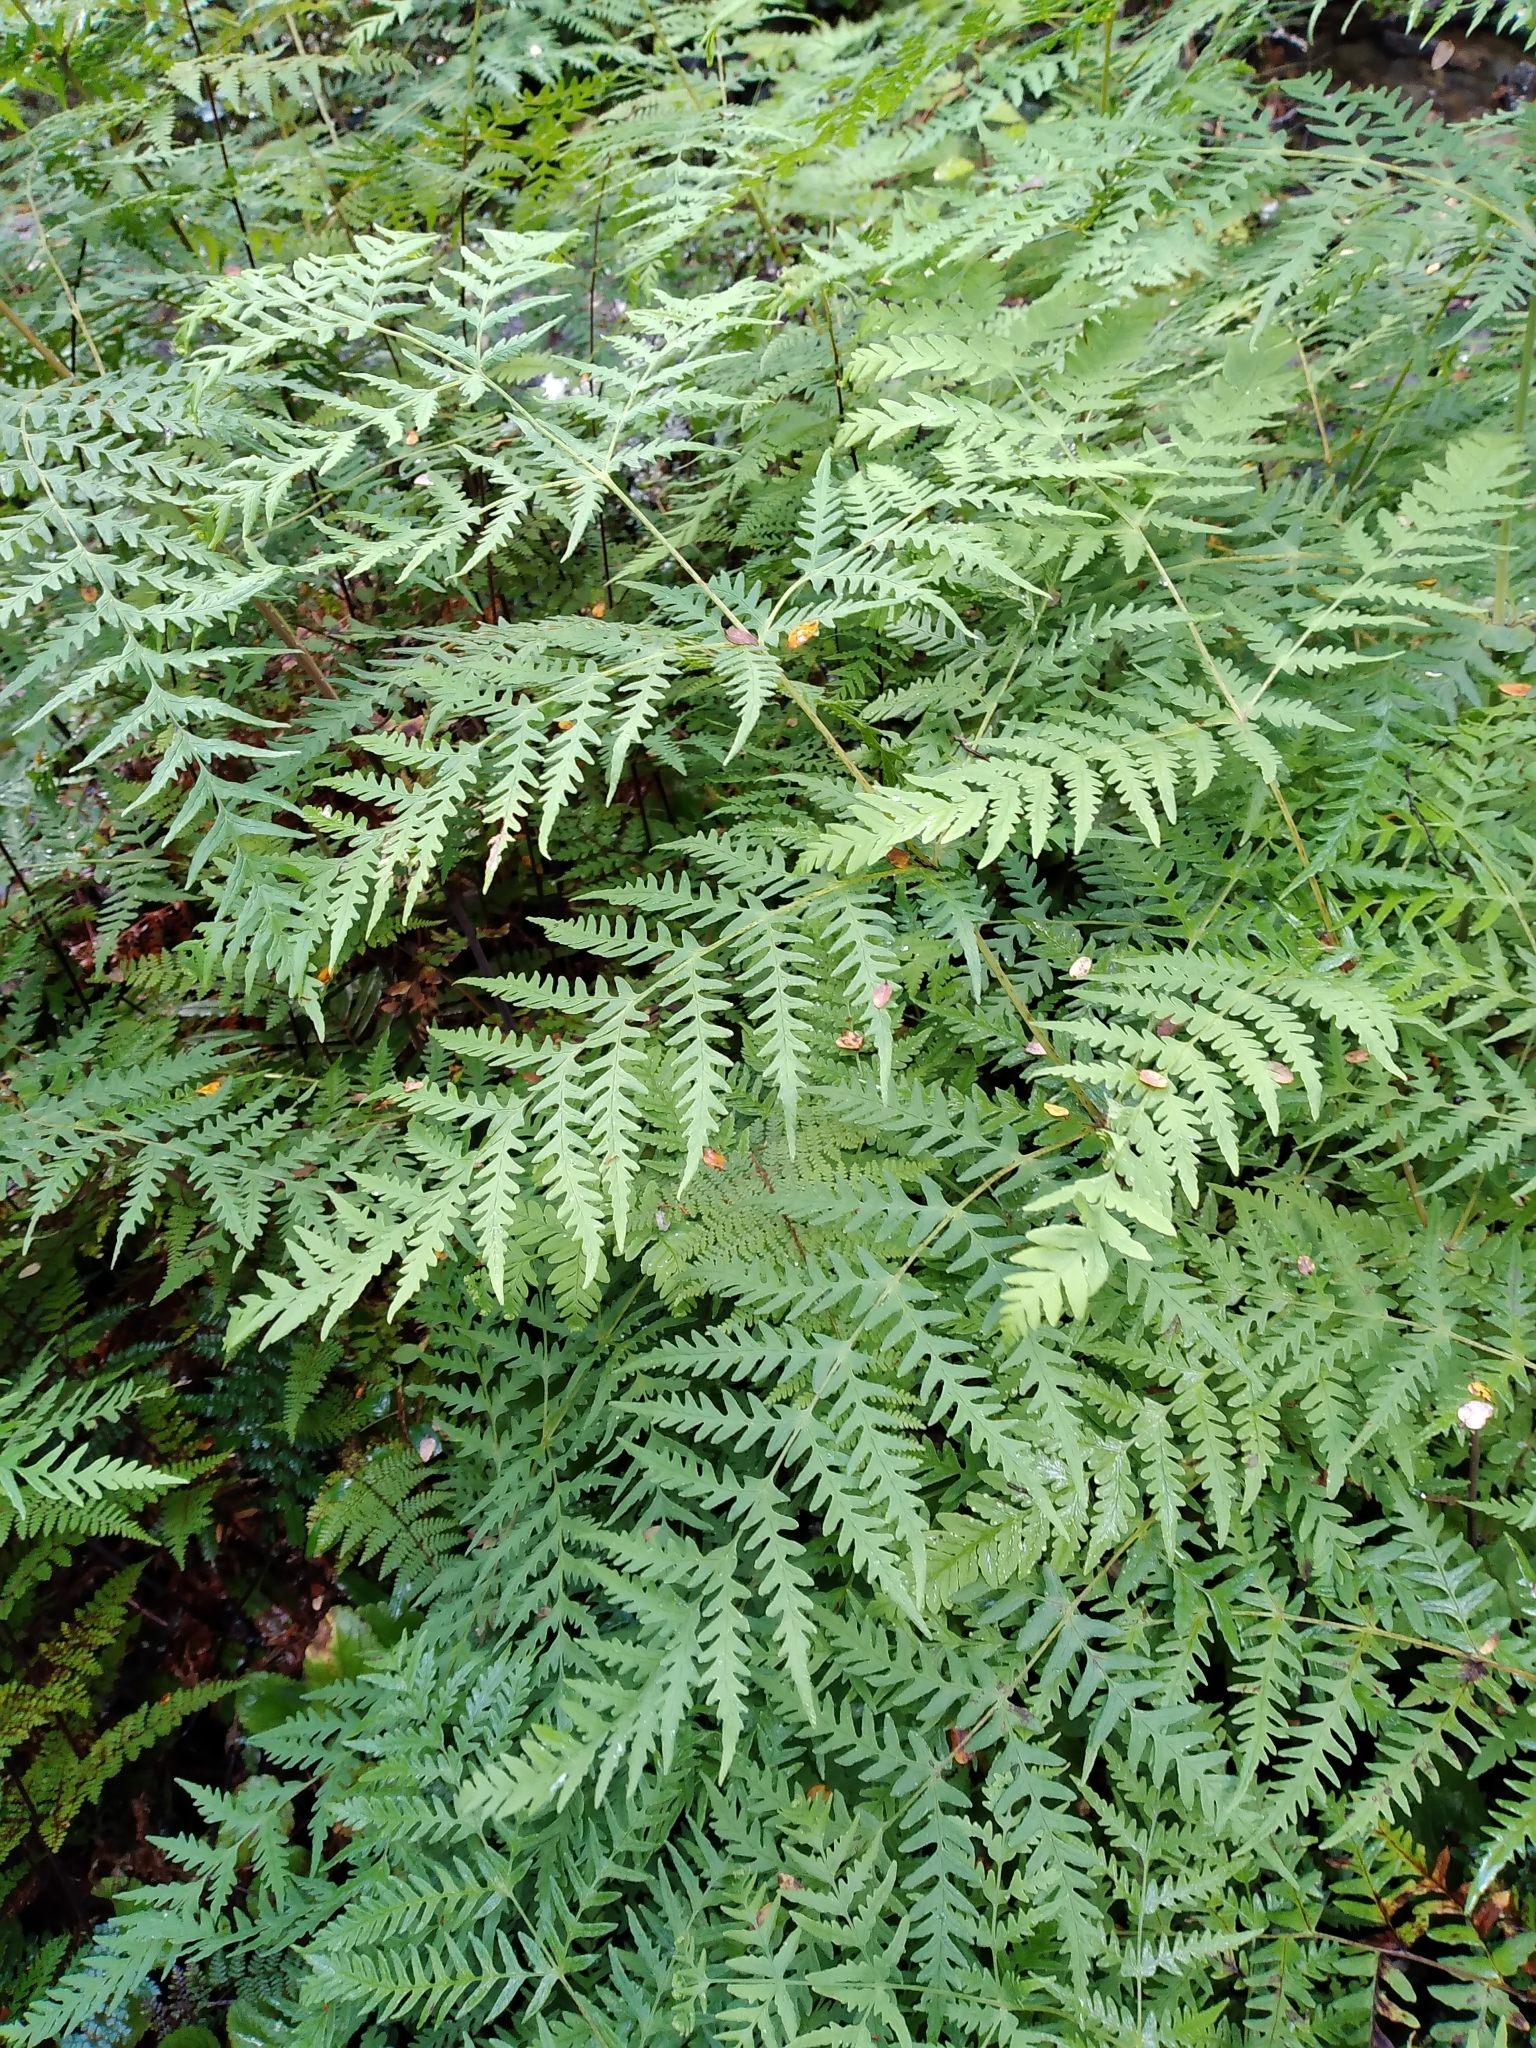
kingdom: Plantae
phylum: Tracheophyta
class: Polypodiopsida
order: Polypodiales
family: Dennstaedtiaceae
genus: Histiopteris
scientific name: Histiopteris incisa
